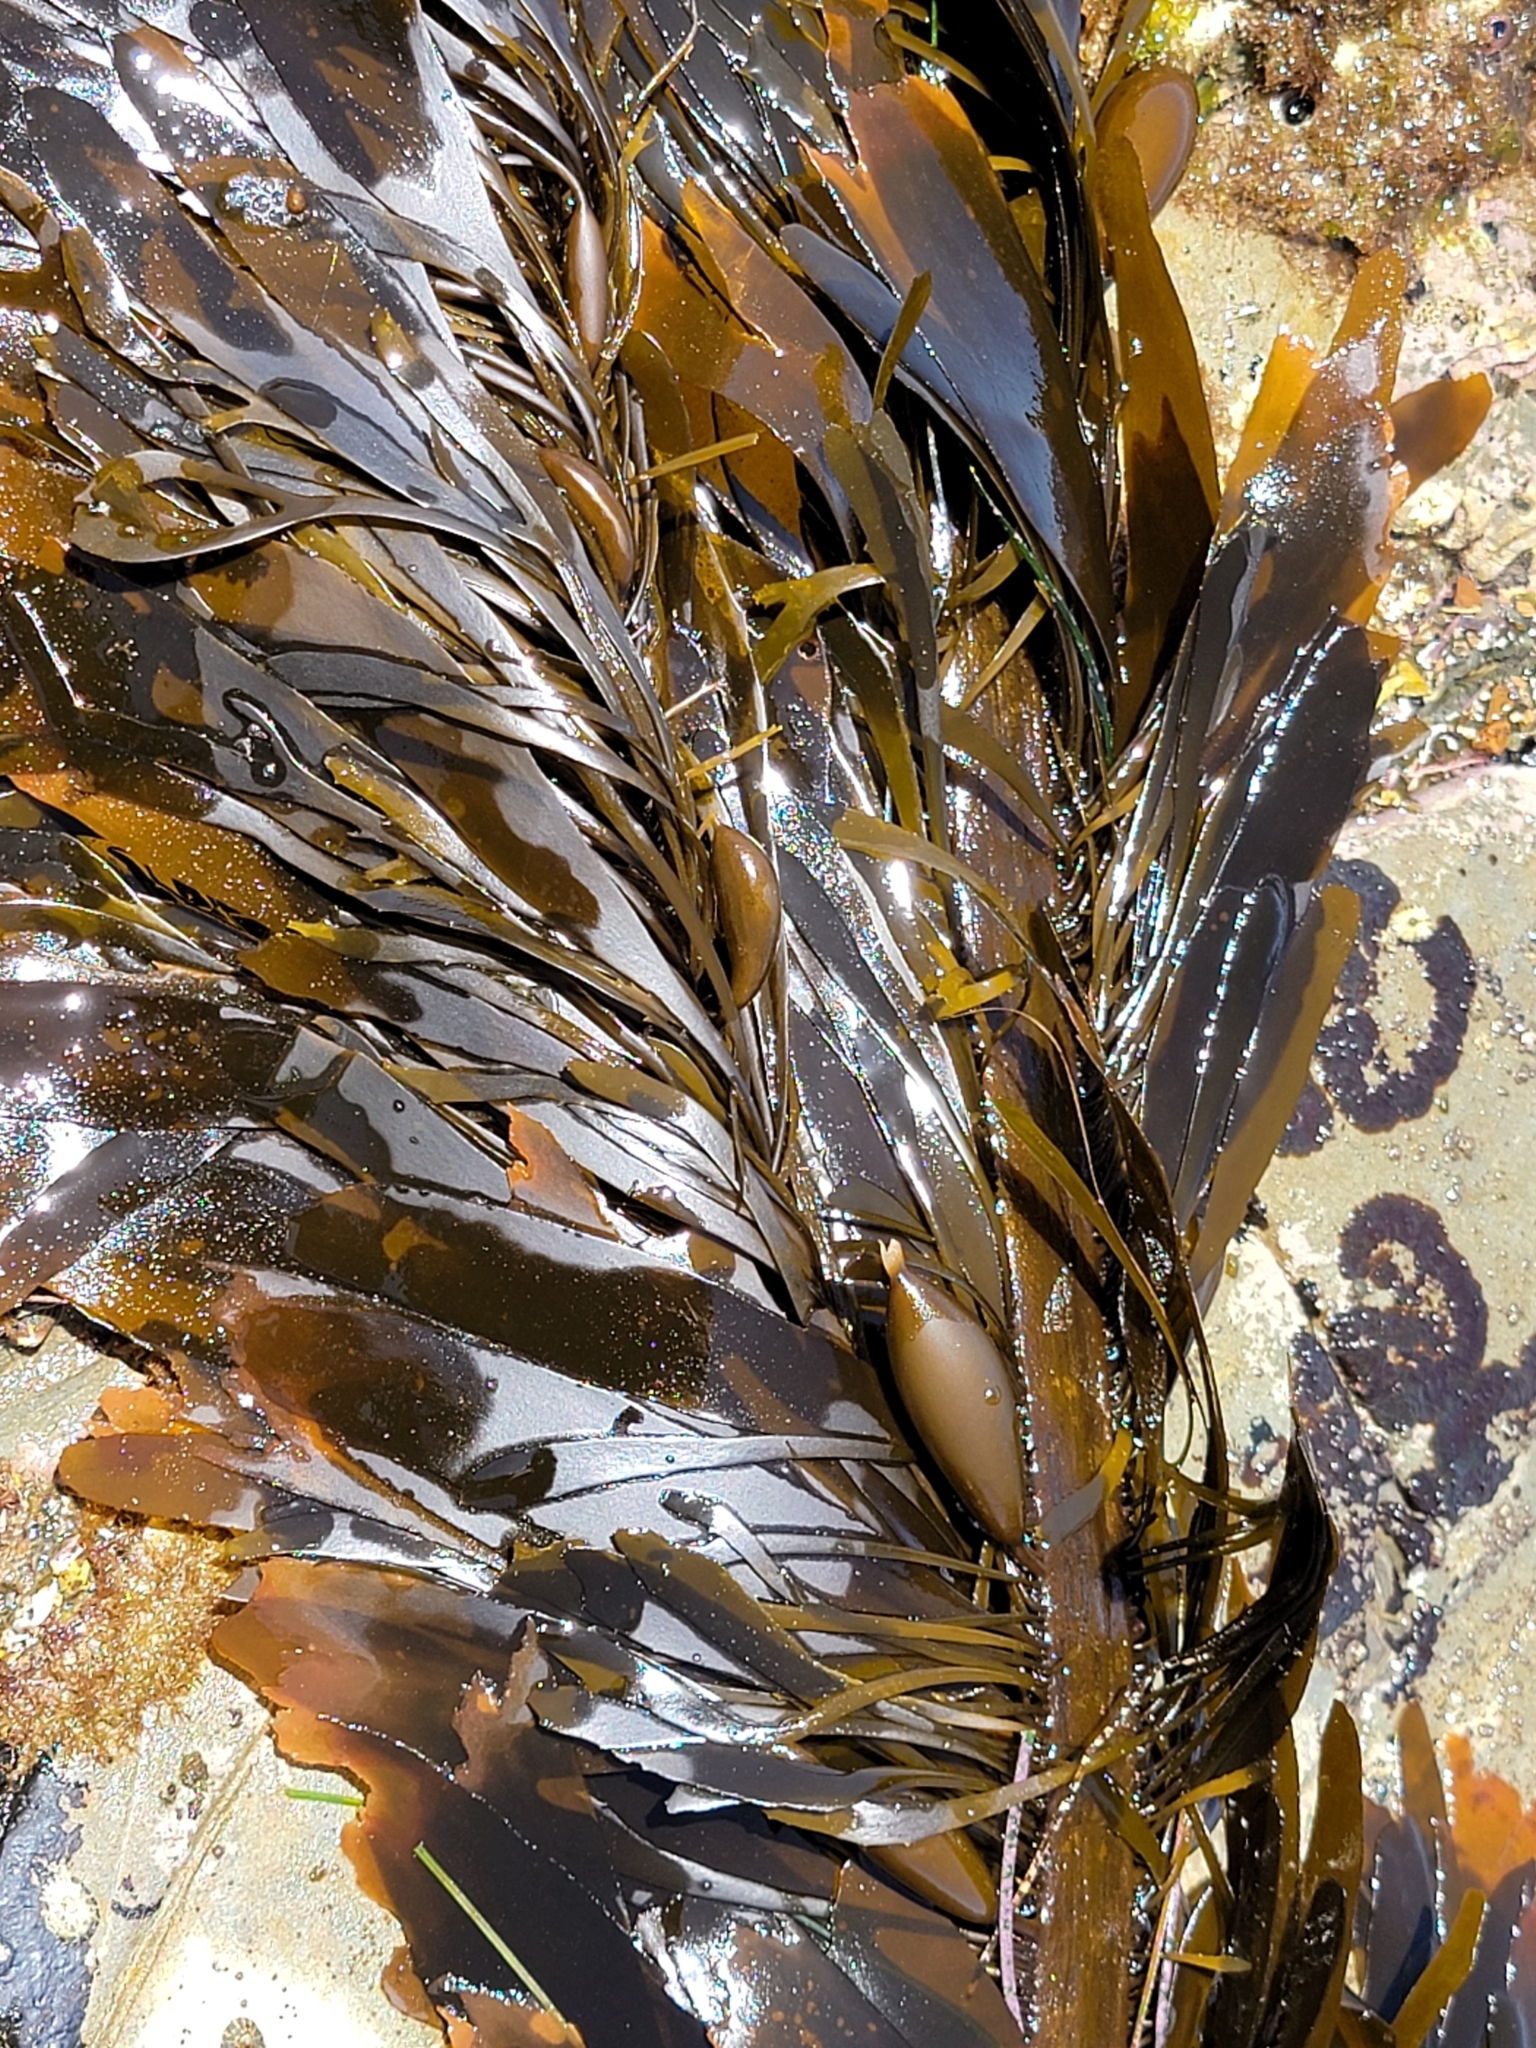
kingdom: Chromista
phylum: Ochrophyta
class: Phaeophyceae
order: Laminariales
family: Lessoniaceae
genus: Egregia
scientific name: Egregia menziesii
